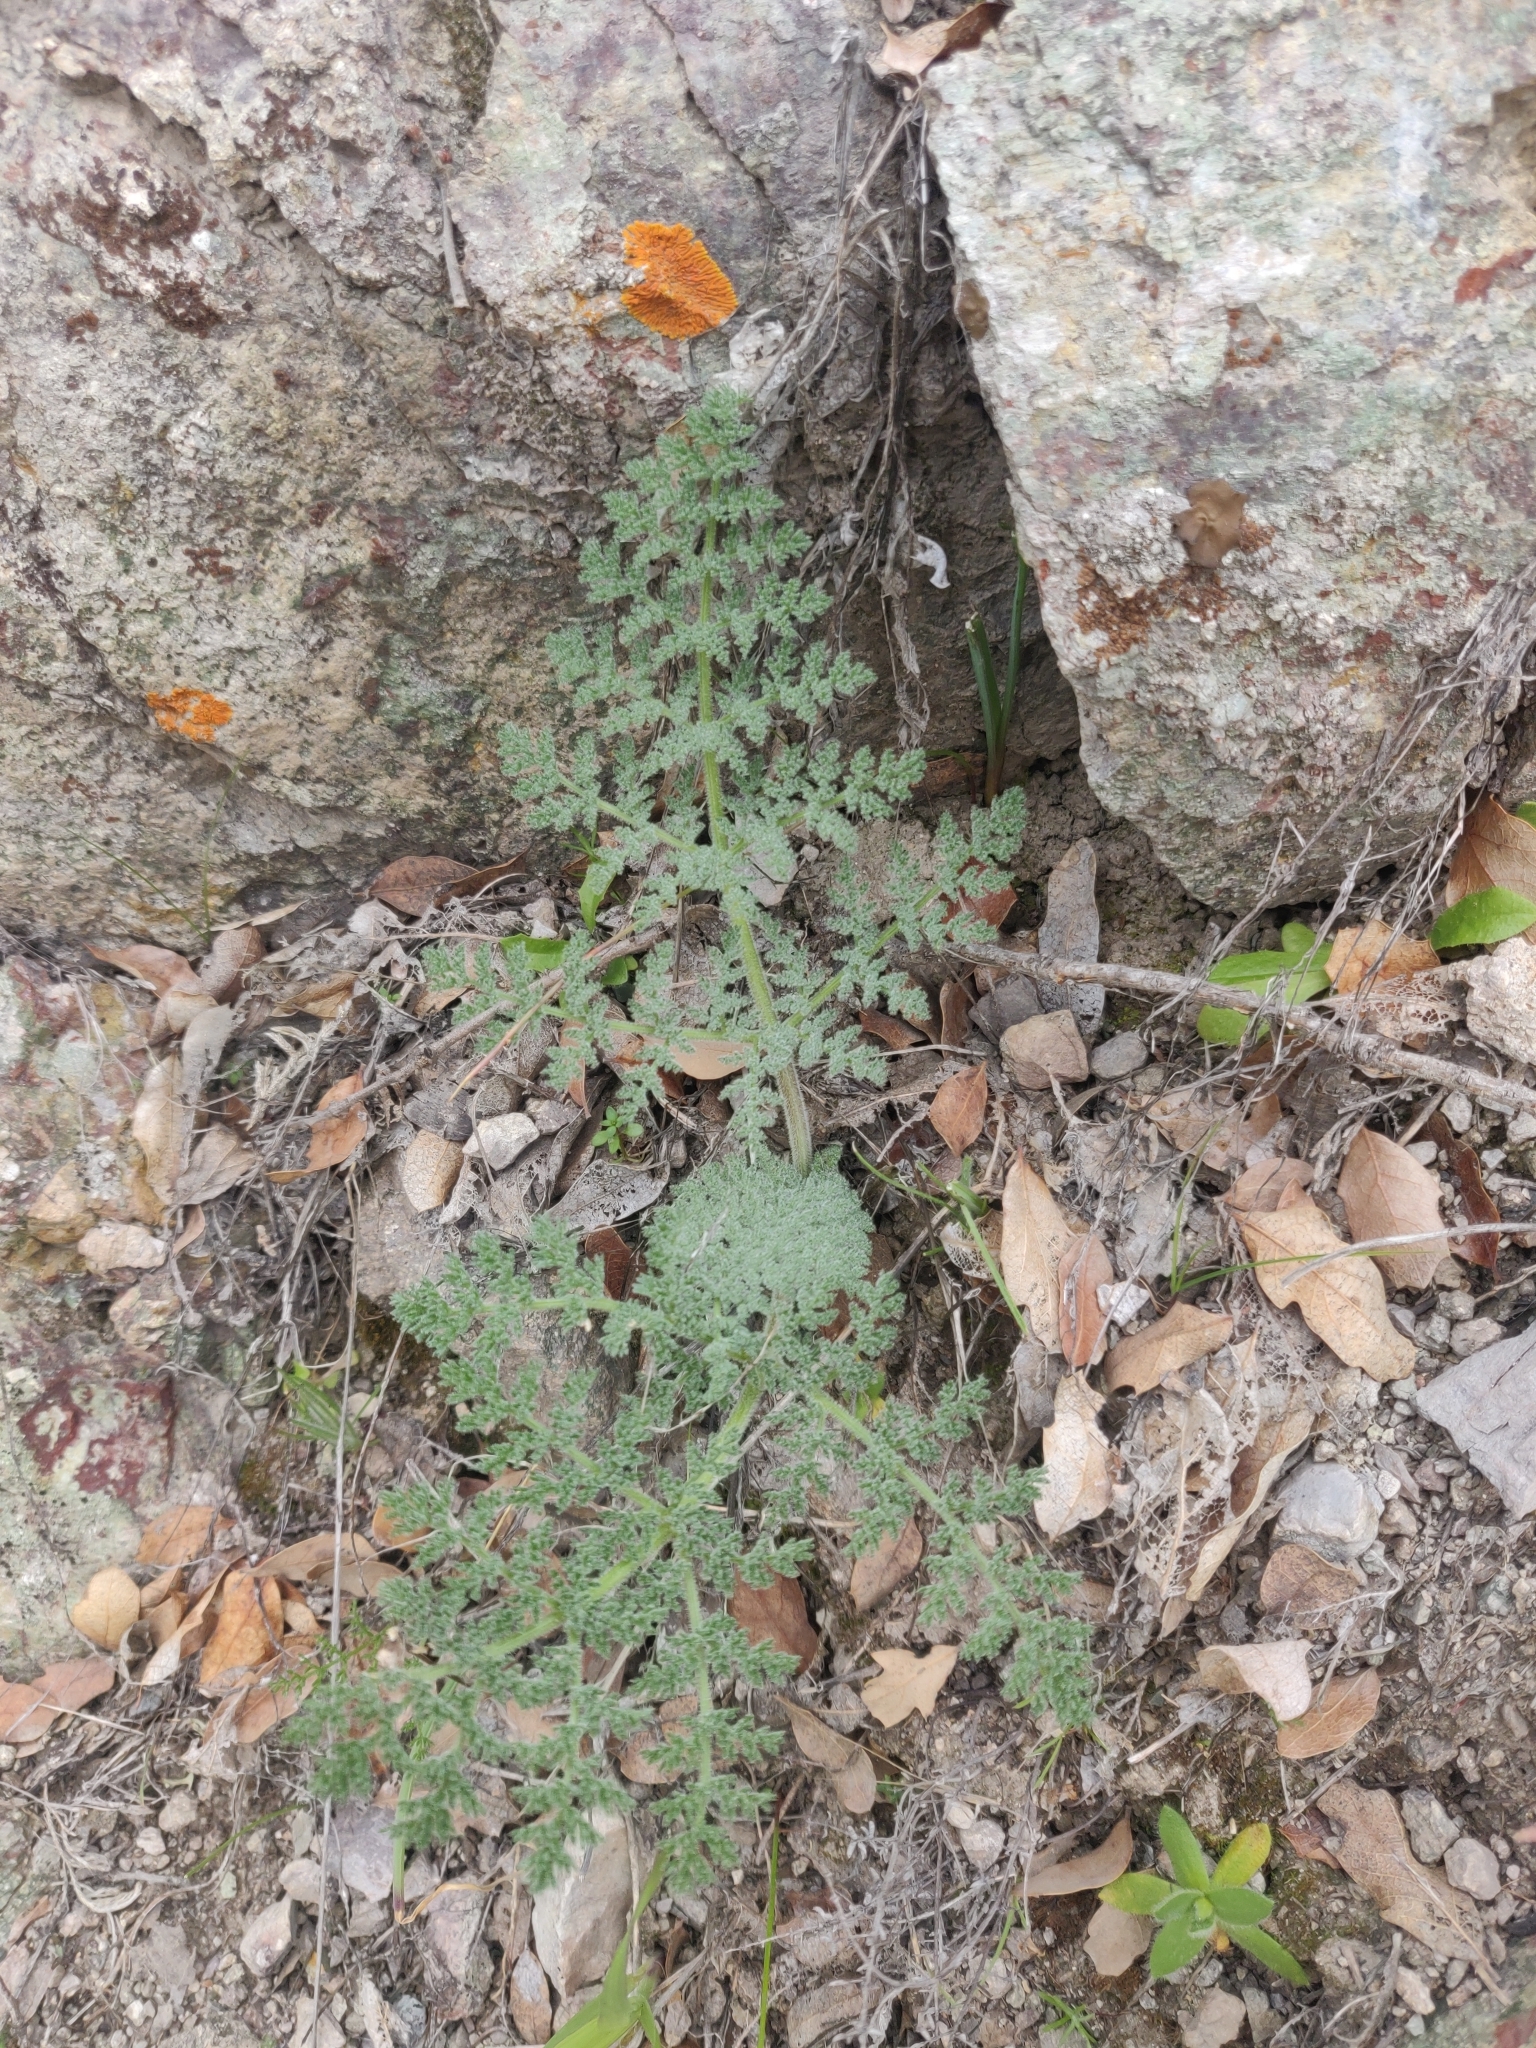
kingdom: Plantae
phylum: Tracheophyta
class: Magnoliopsida
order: Apiales
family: Apiaceae
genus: Lomatium
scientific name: Lomatium dasycarpum
